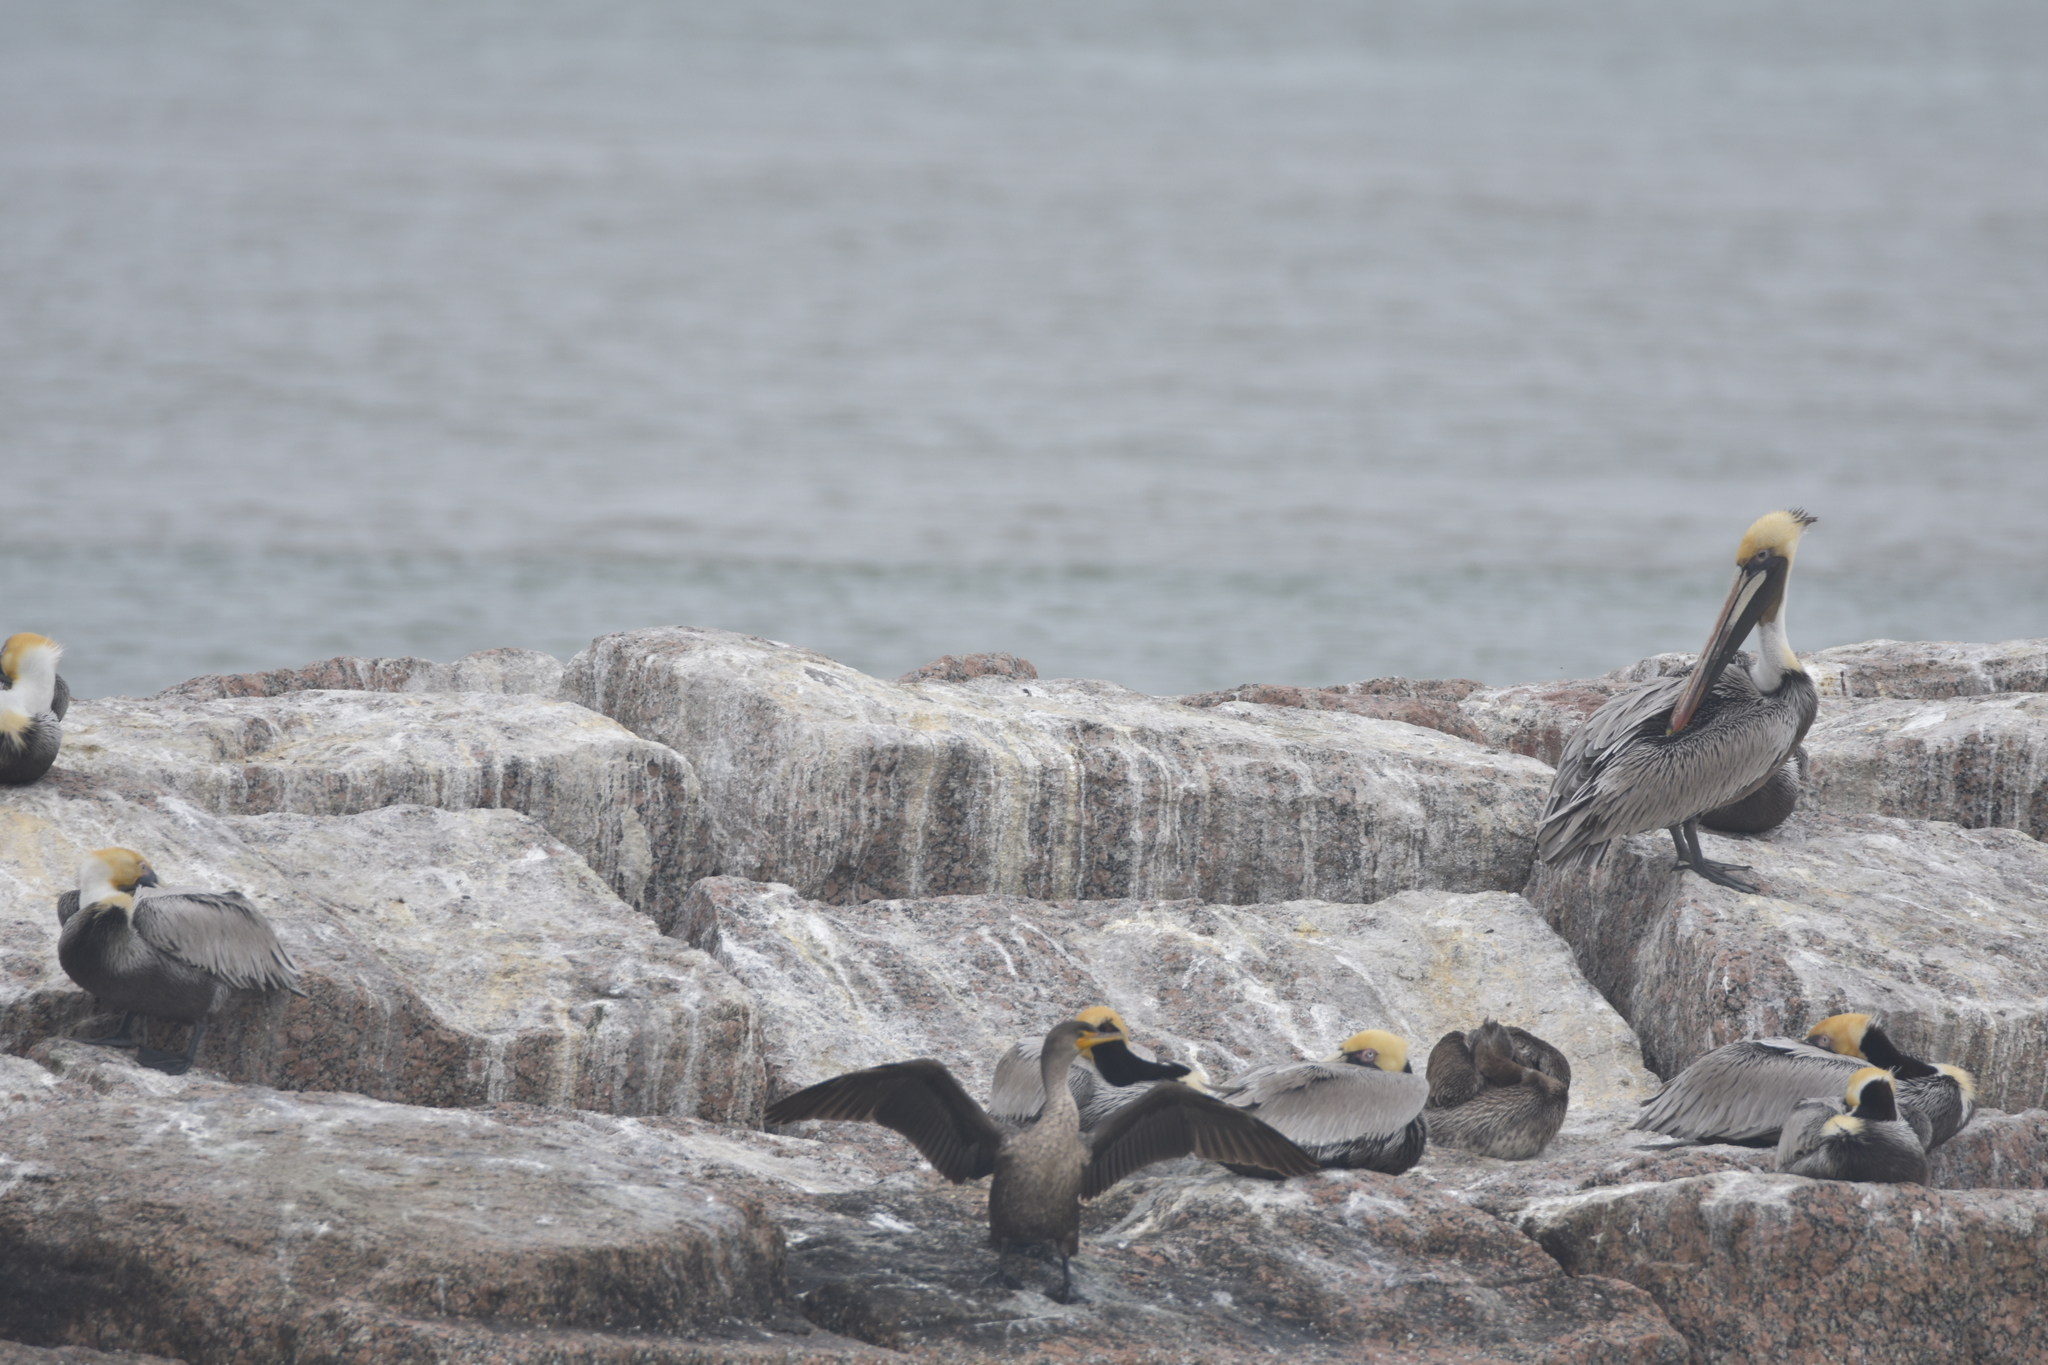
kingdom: Animalia
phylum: Chordata
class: Aves
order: Suliformes
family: Phalacrocoracidae
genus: Phalacrocorax
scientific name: Phalacrocorax auritus
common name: Double-crested cormorant
